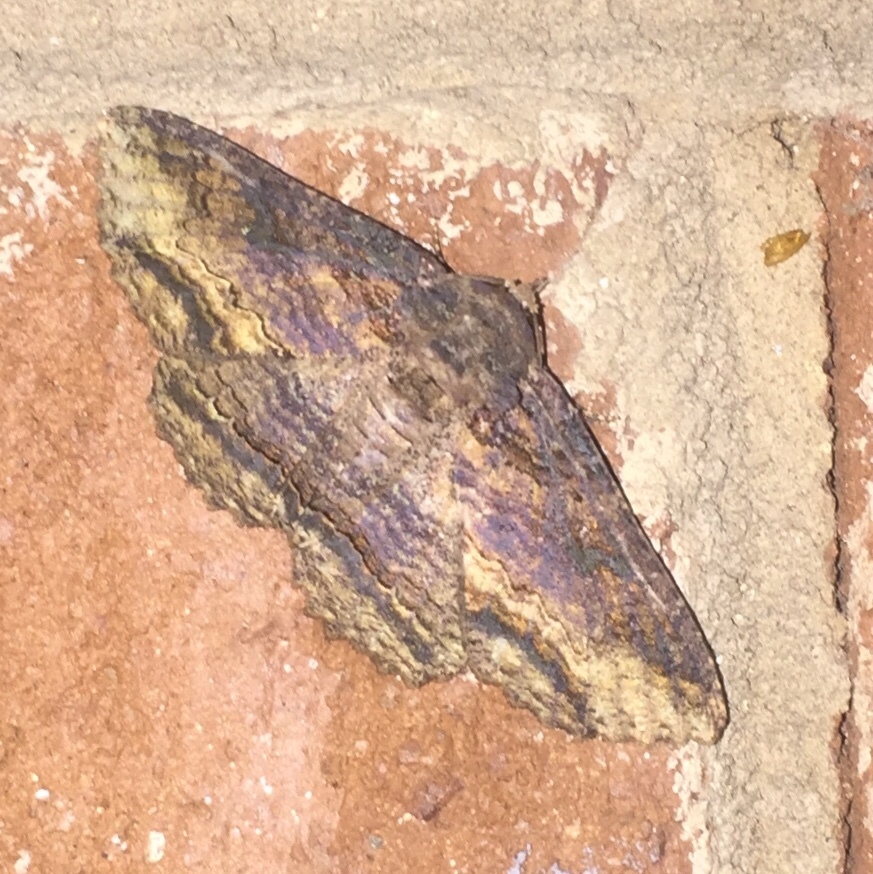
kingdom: Animalia
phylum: Arthropoda
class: Insecta
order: Lepidoptera
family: Erebidae
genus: Zale
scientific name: Zale lunata
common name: Lunate zale moth
